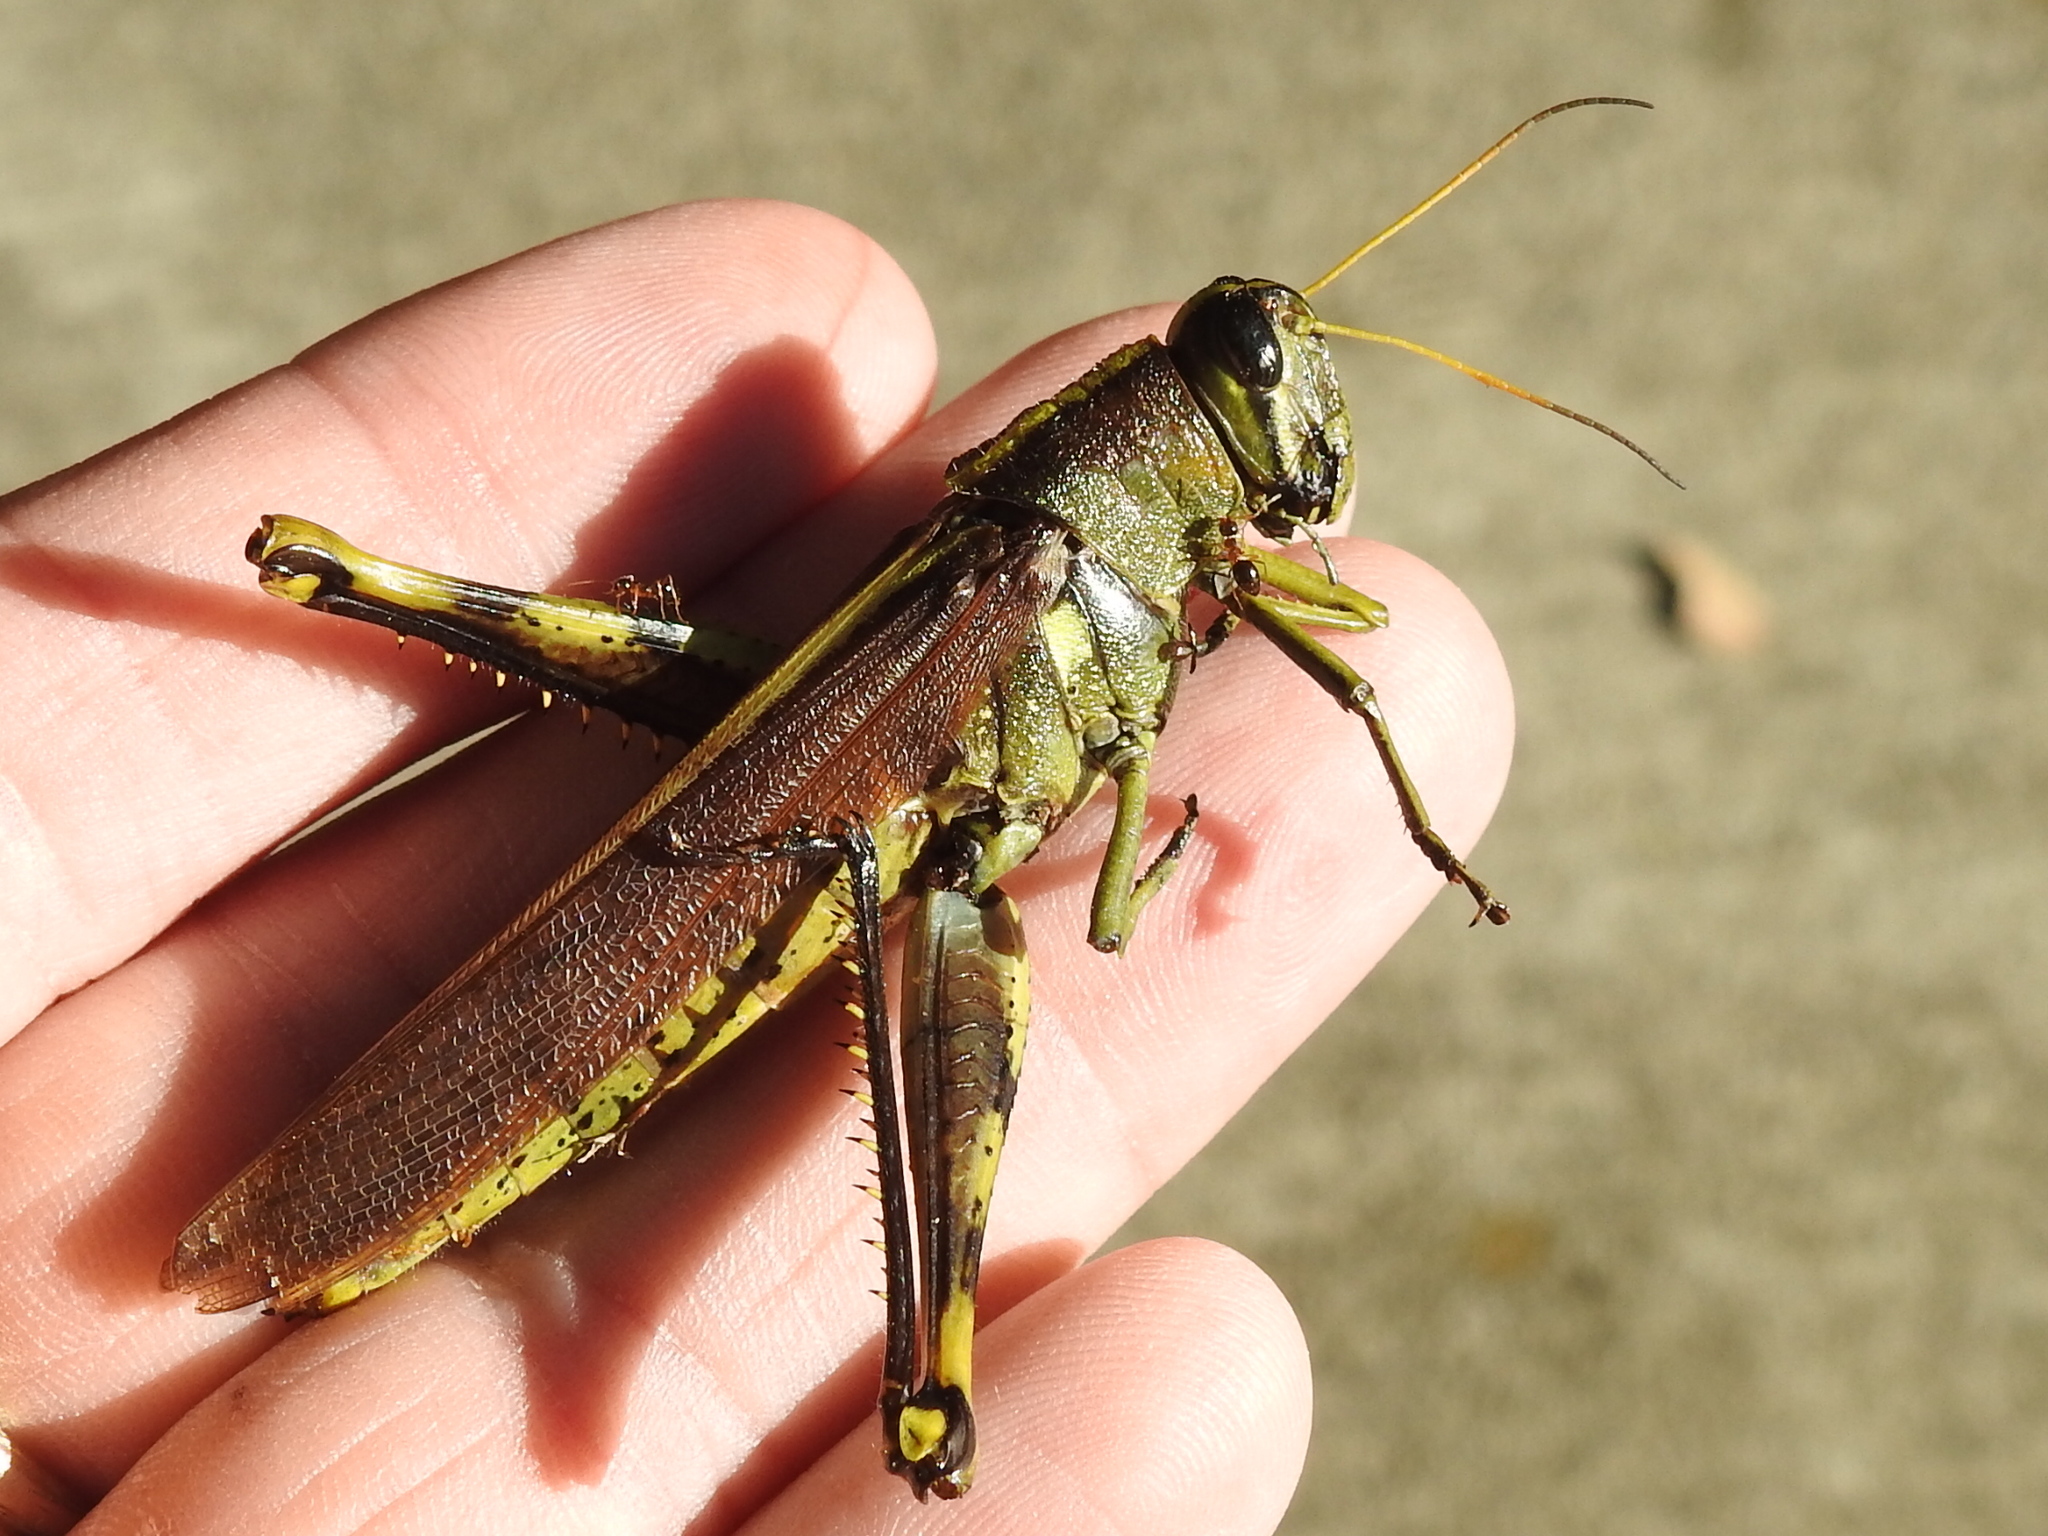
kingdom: Animalia
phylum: Arthropoda
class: Insecta
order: Orthoptera
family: Acrididae
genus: Schistocerca
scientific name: Schistocerca obscura
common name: Obscure bird grasshopper
